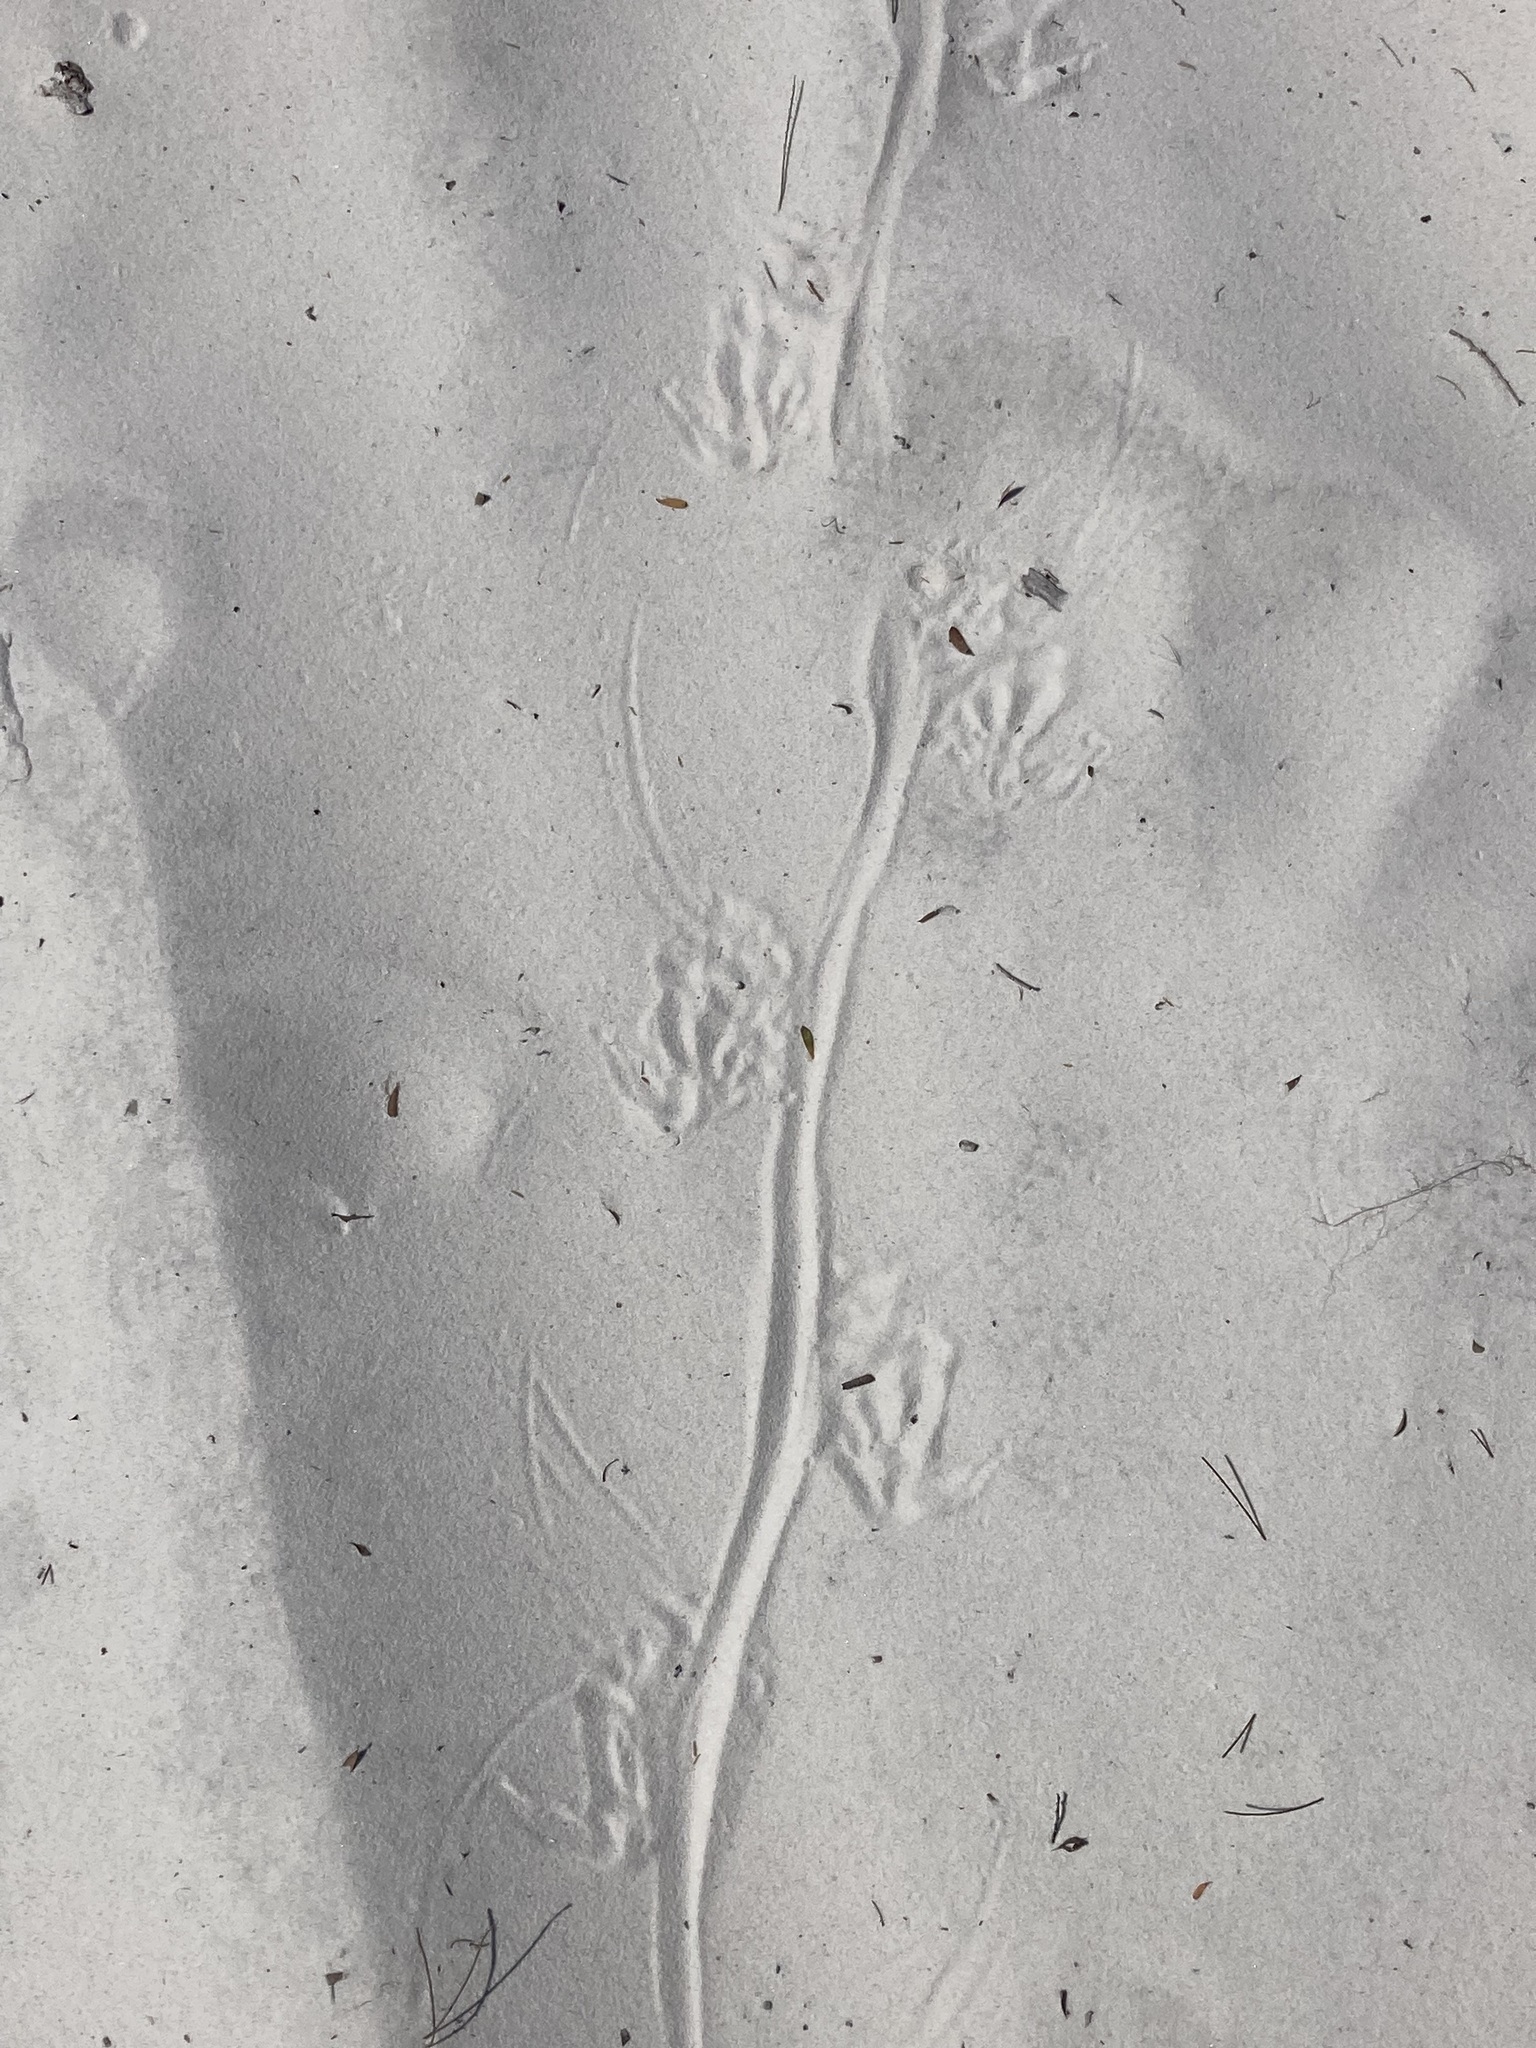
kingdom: Animalia
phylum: Chordata
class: Squamata
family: Varanidae
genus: Varanus
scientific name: Varanus varius
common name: Lace monitor
